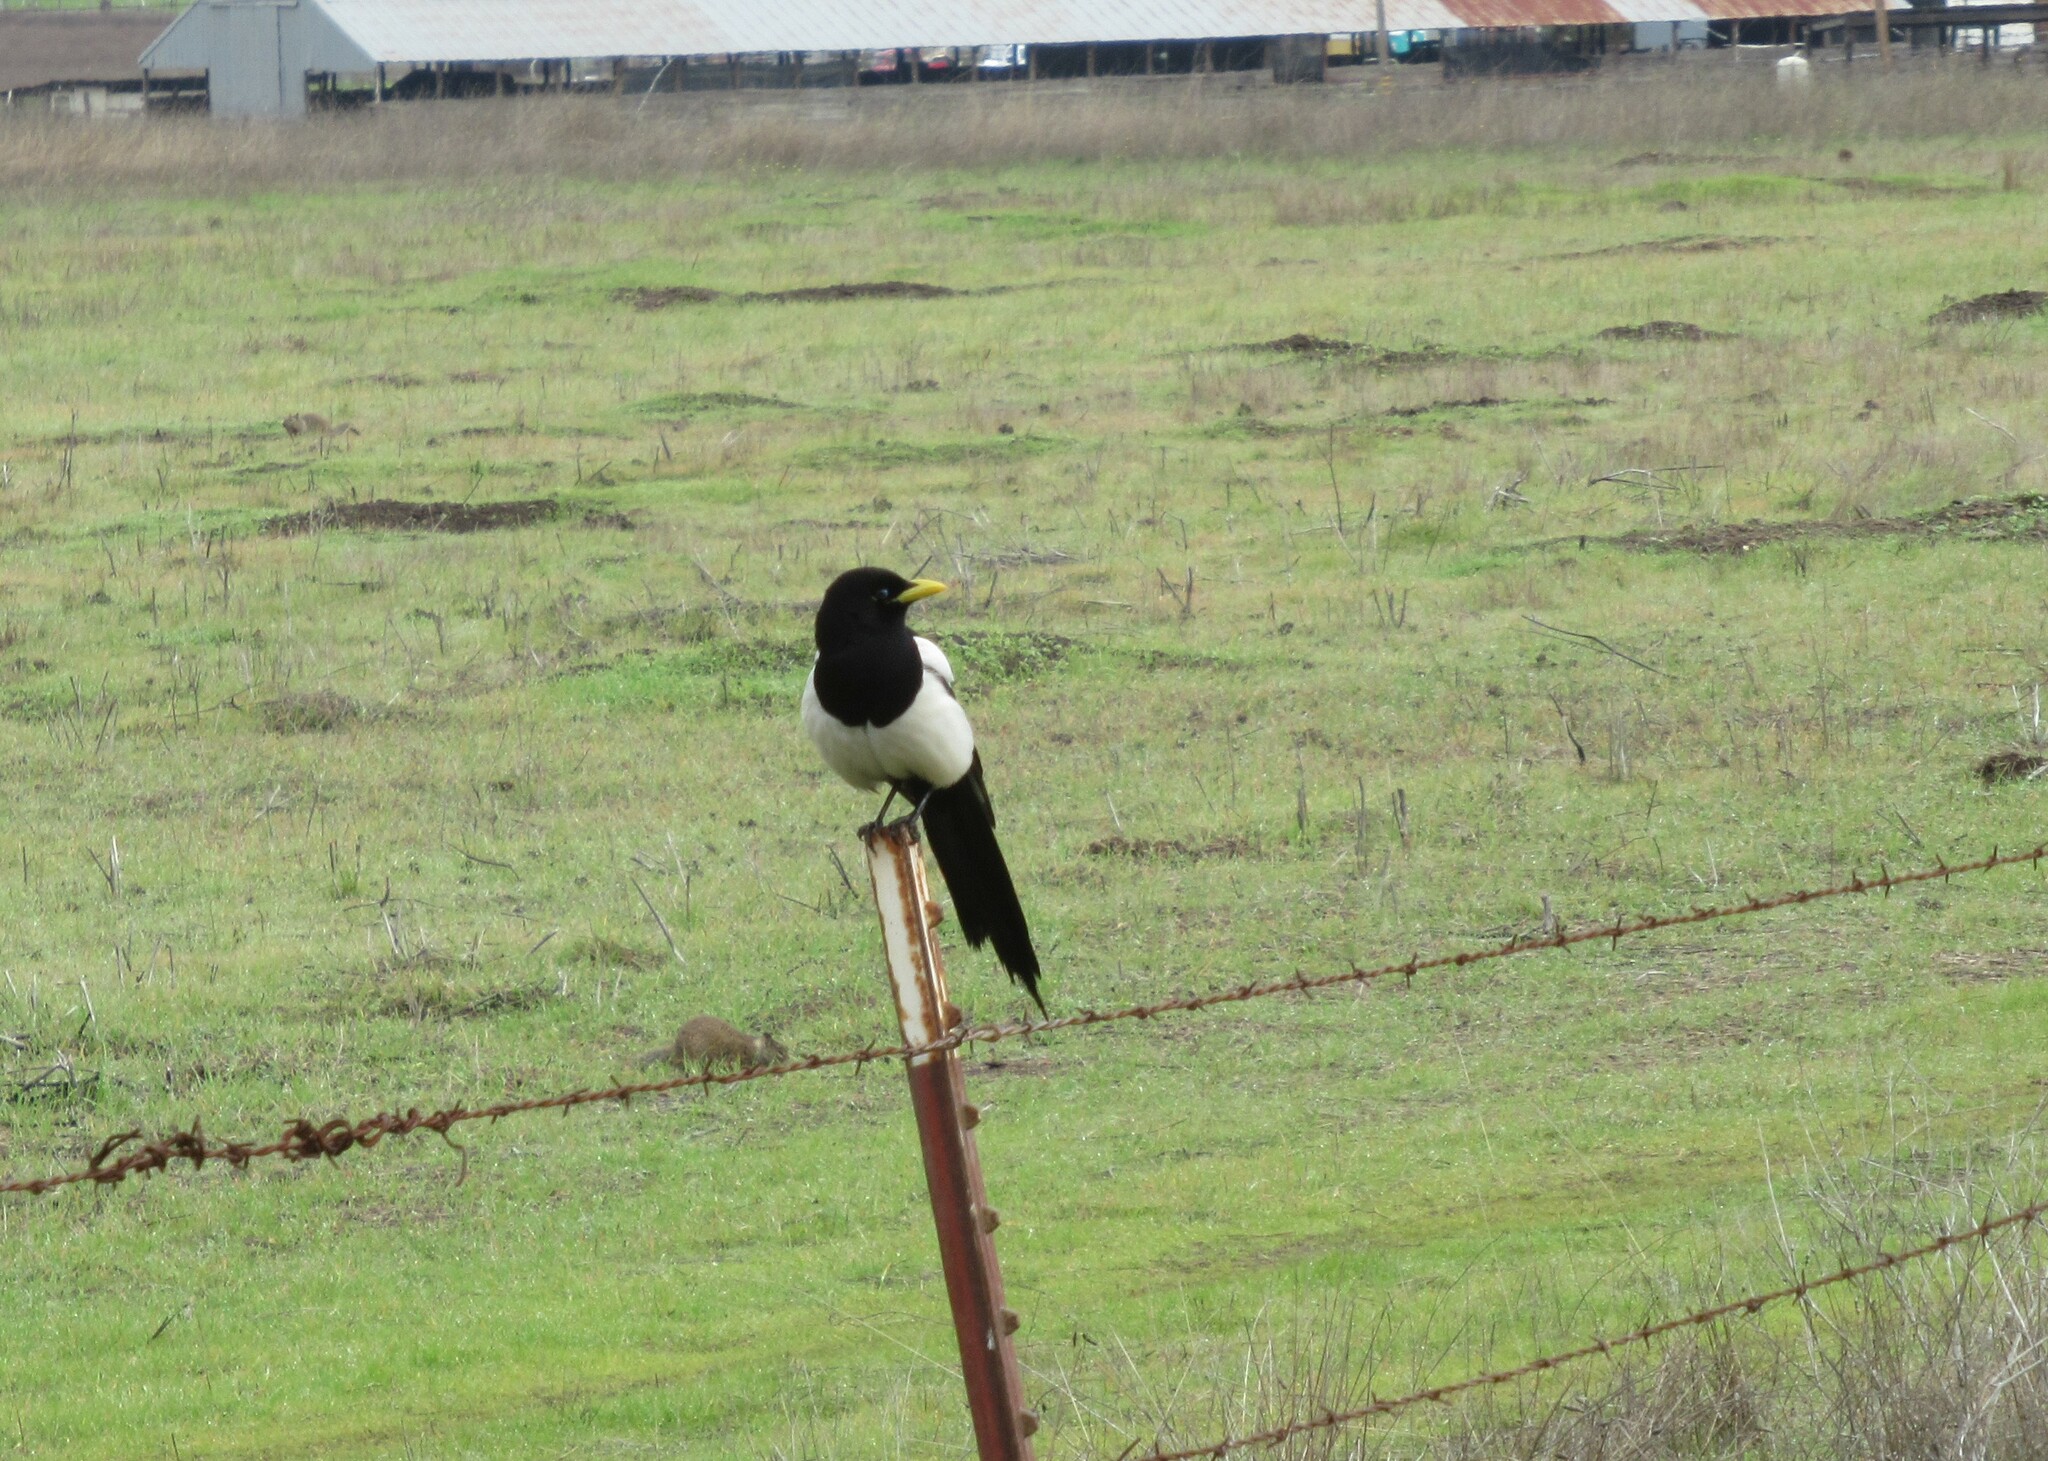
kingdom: Animalia
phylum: Chordata
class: Aves
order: Passeriformes
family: Corvidae
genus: Pica
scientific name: Pica nuttalli
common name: Yellow-billed magpie
